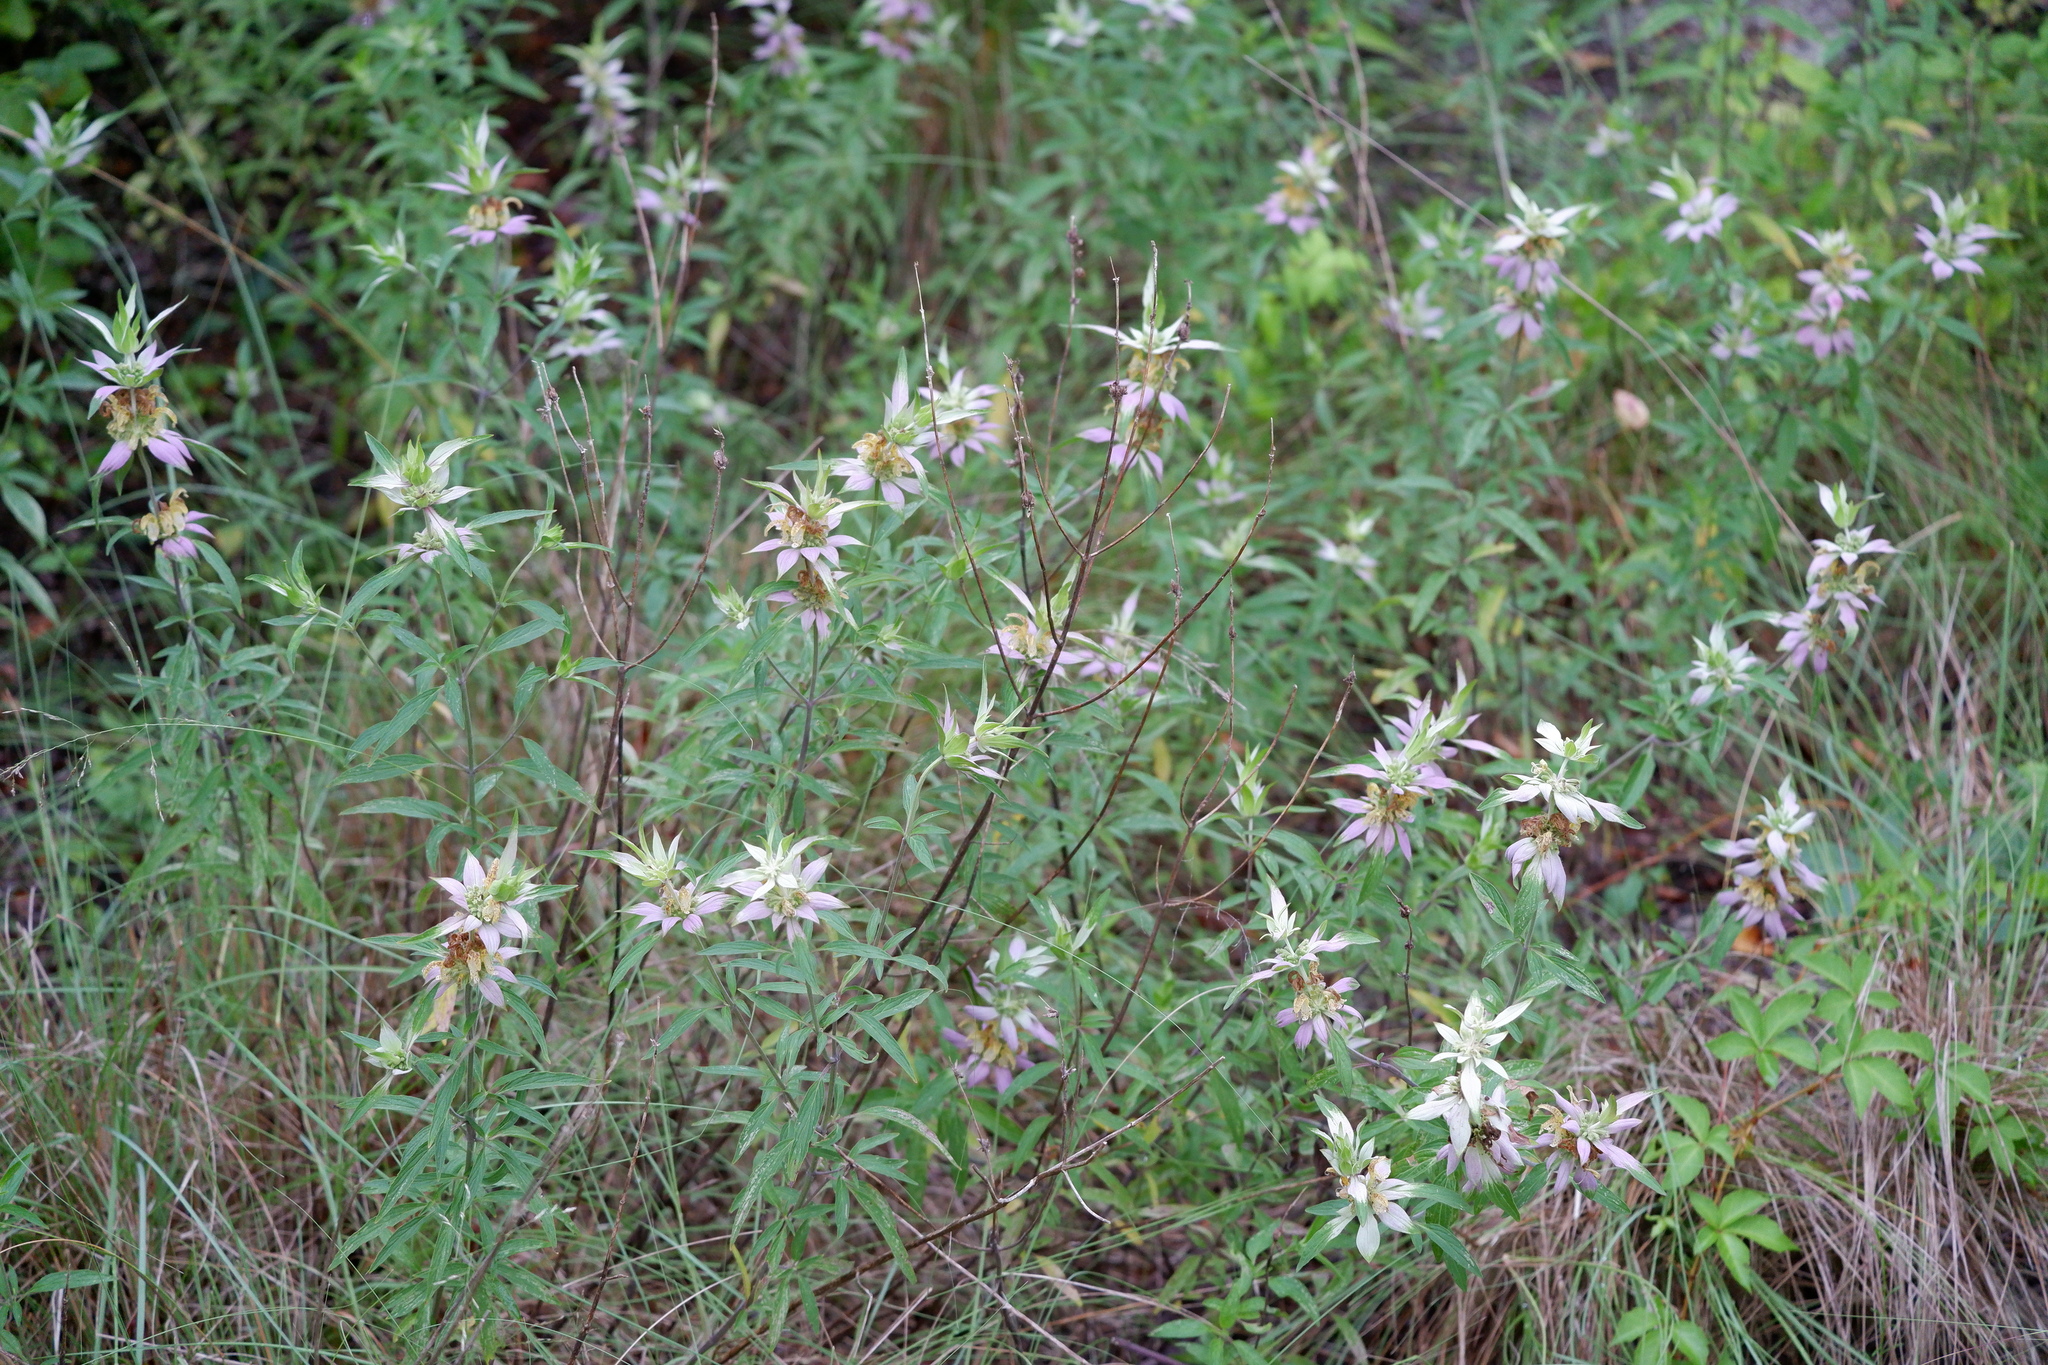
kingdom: Plantae
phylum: Tracheophyta
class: Magnoliopsida
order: Lamiales
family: Lamiaceae
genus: Monarda
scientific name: Monarda punctata
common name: Dotted monarda
